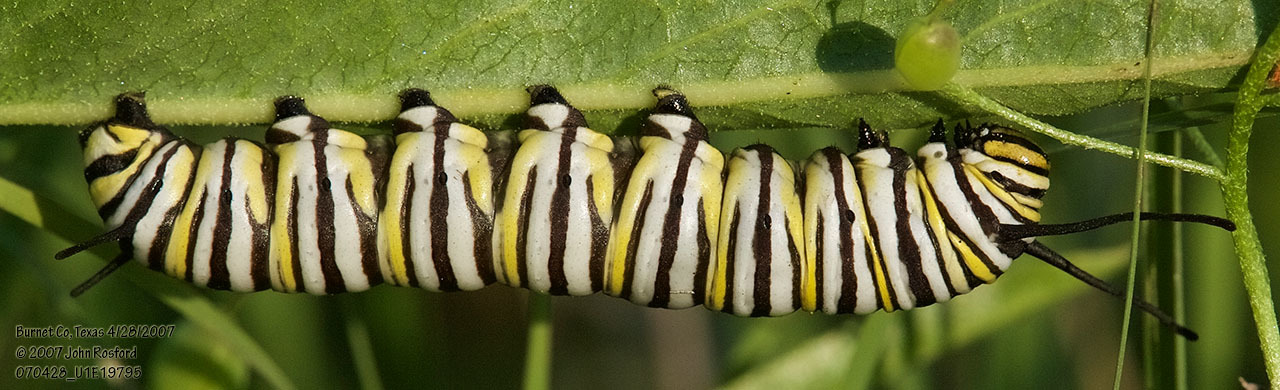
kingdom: Animalia
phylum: Arthropoda
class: Insecta
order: Lepidoptera
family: Nymphalidae
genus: Danaus
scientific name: Danaus plexippus
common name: Monarch
